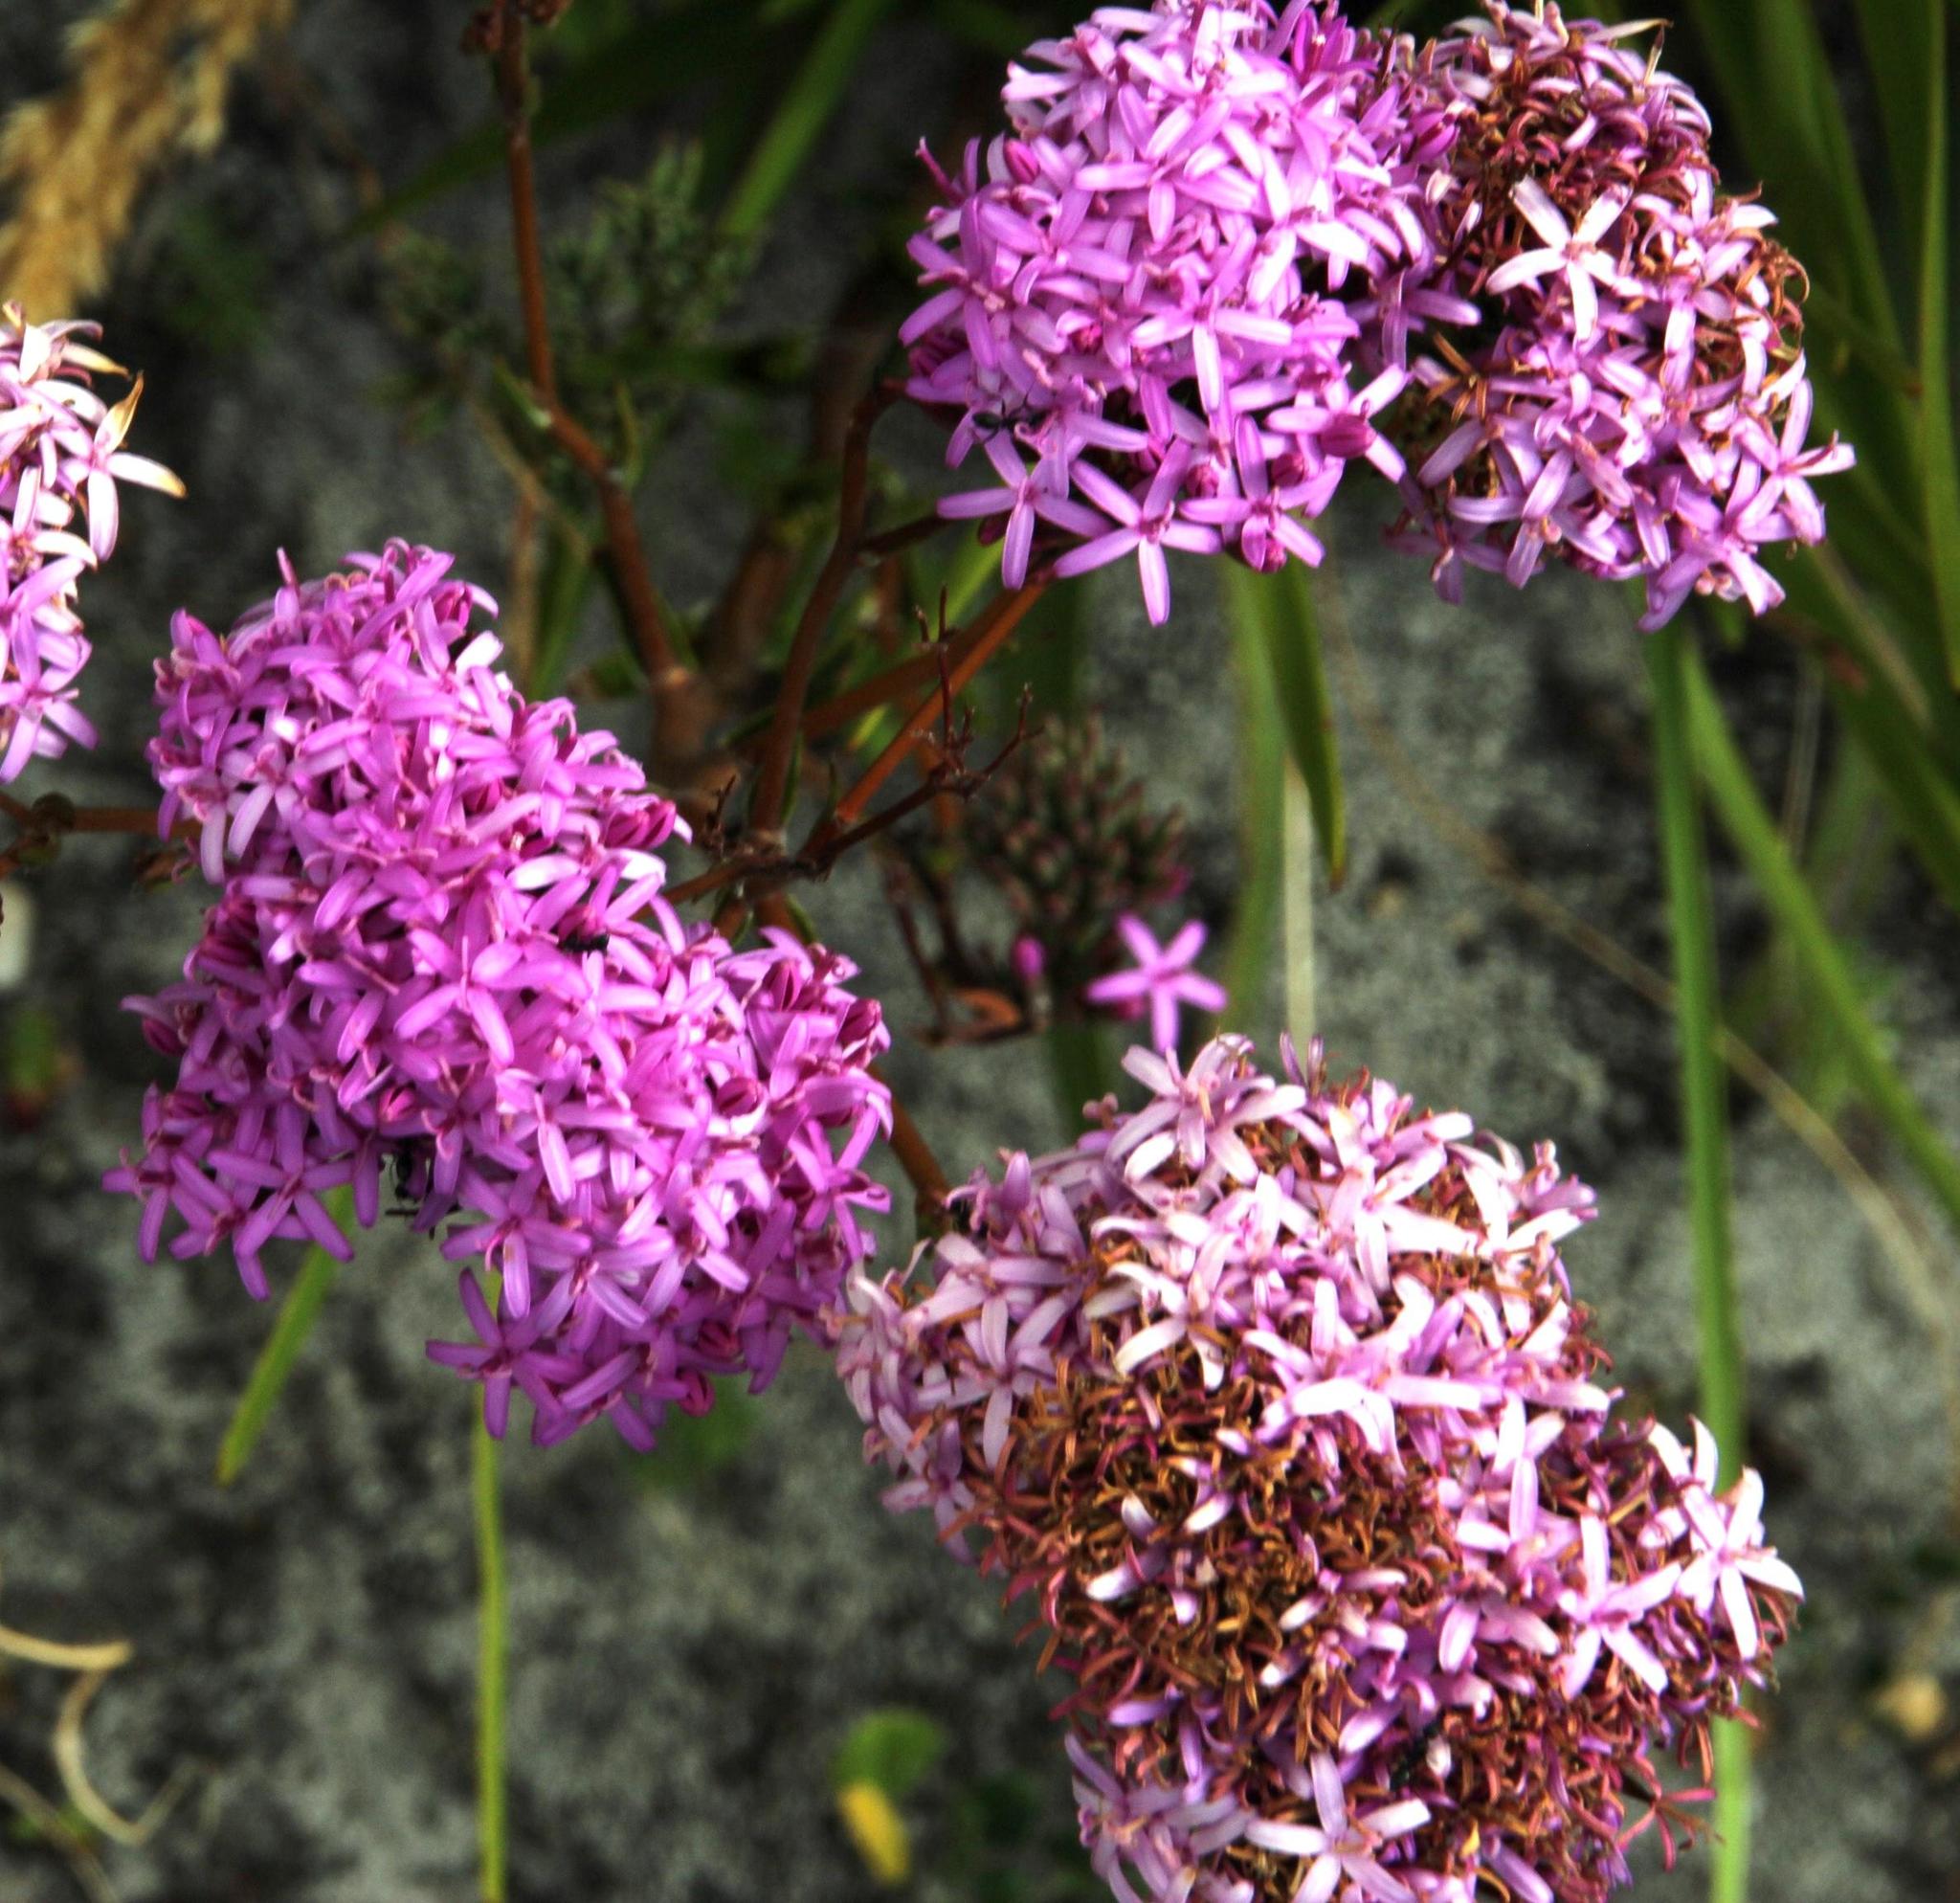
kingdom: Plantae
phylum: Tracheophyta
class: Magnoliopsida
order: Asterales
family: Asteraceae
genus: Corymbium
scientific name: Corymbium glabrum
